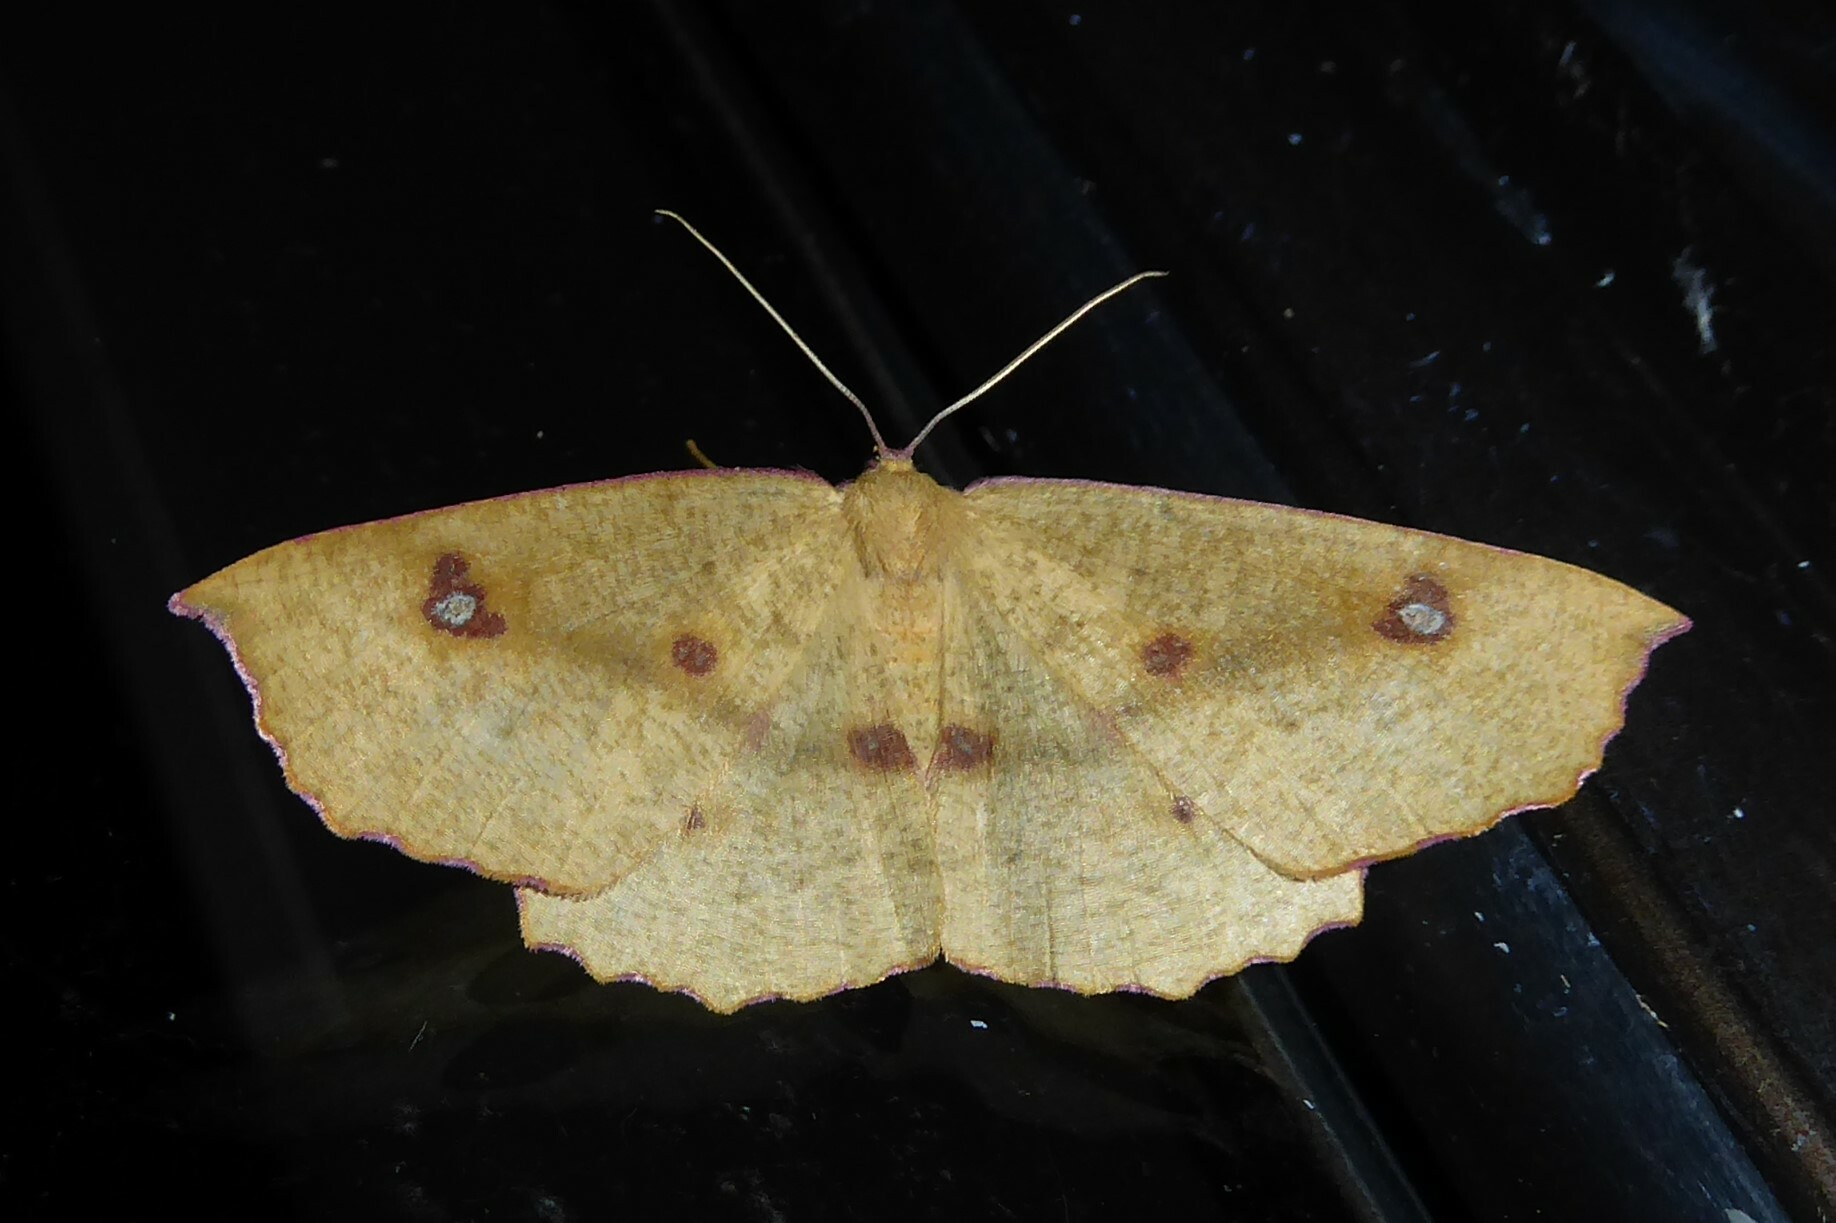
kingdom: Animalia
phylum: Arthropoda
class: Insecta
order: Lepidoptera
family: Geometridae
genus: Xyridacma
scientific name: Xyridacma alectoraria
